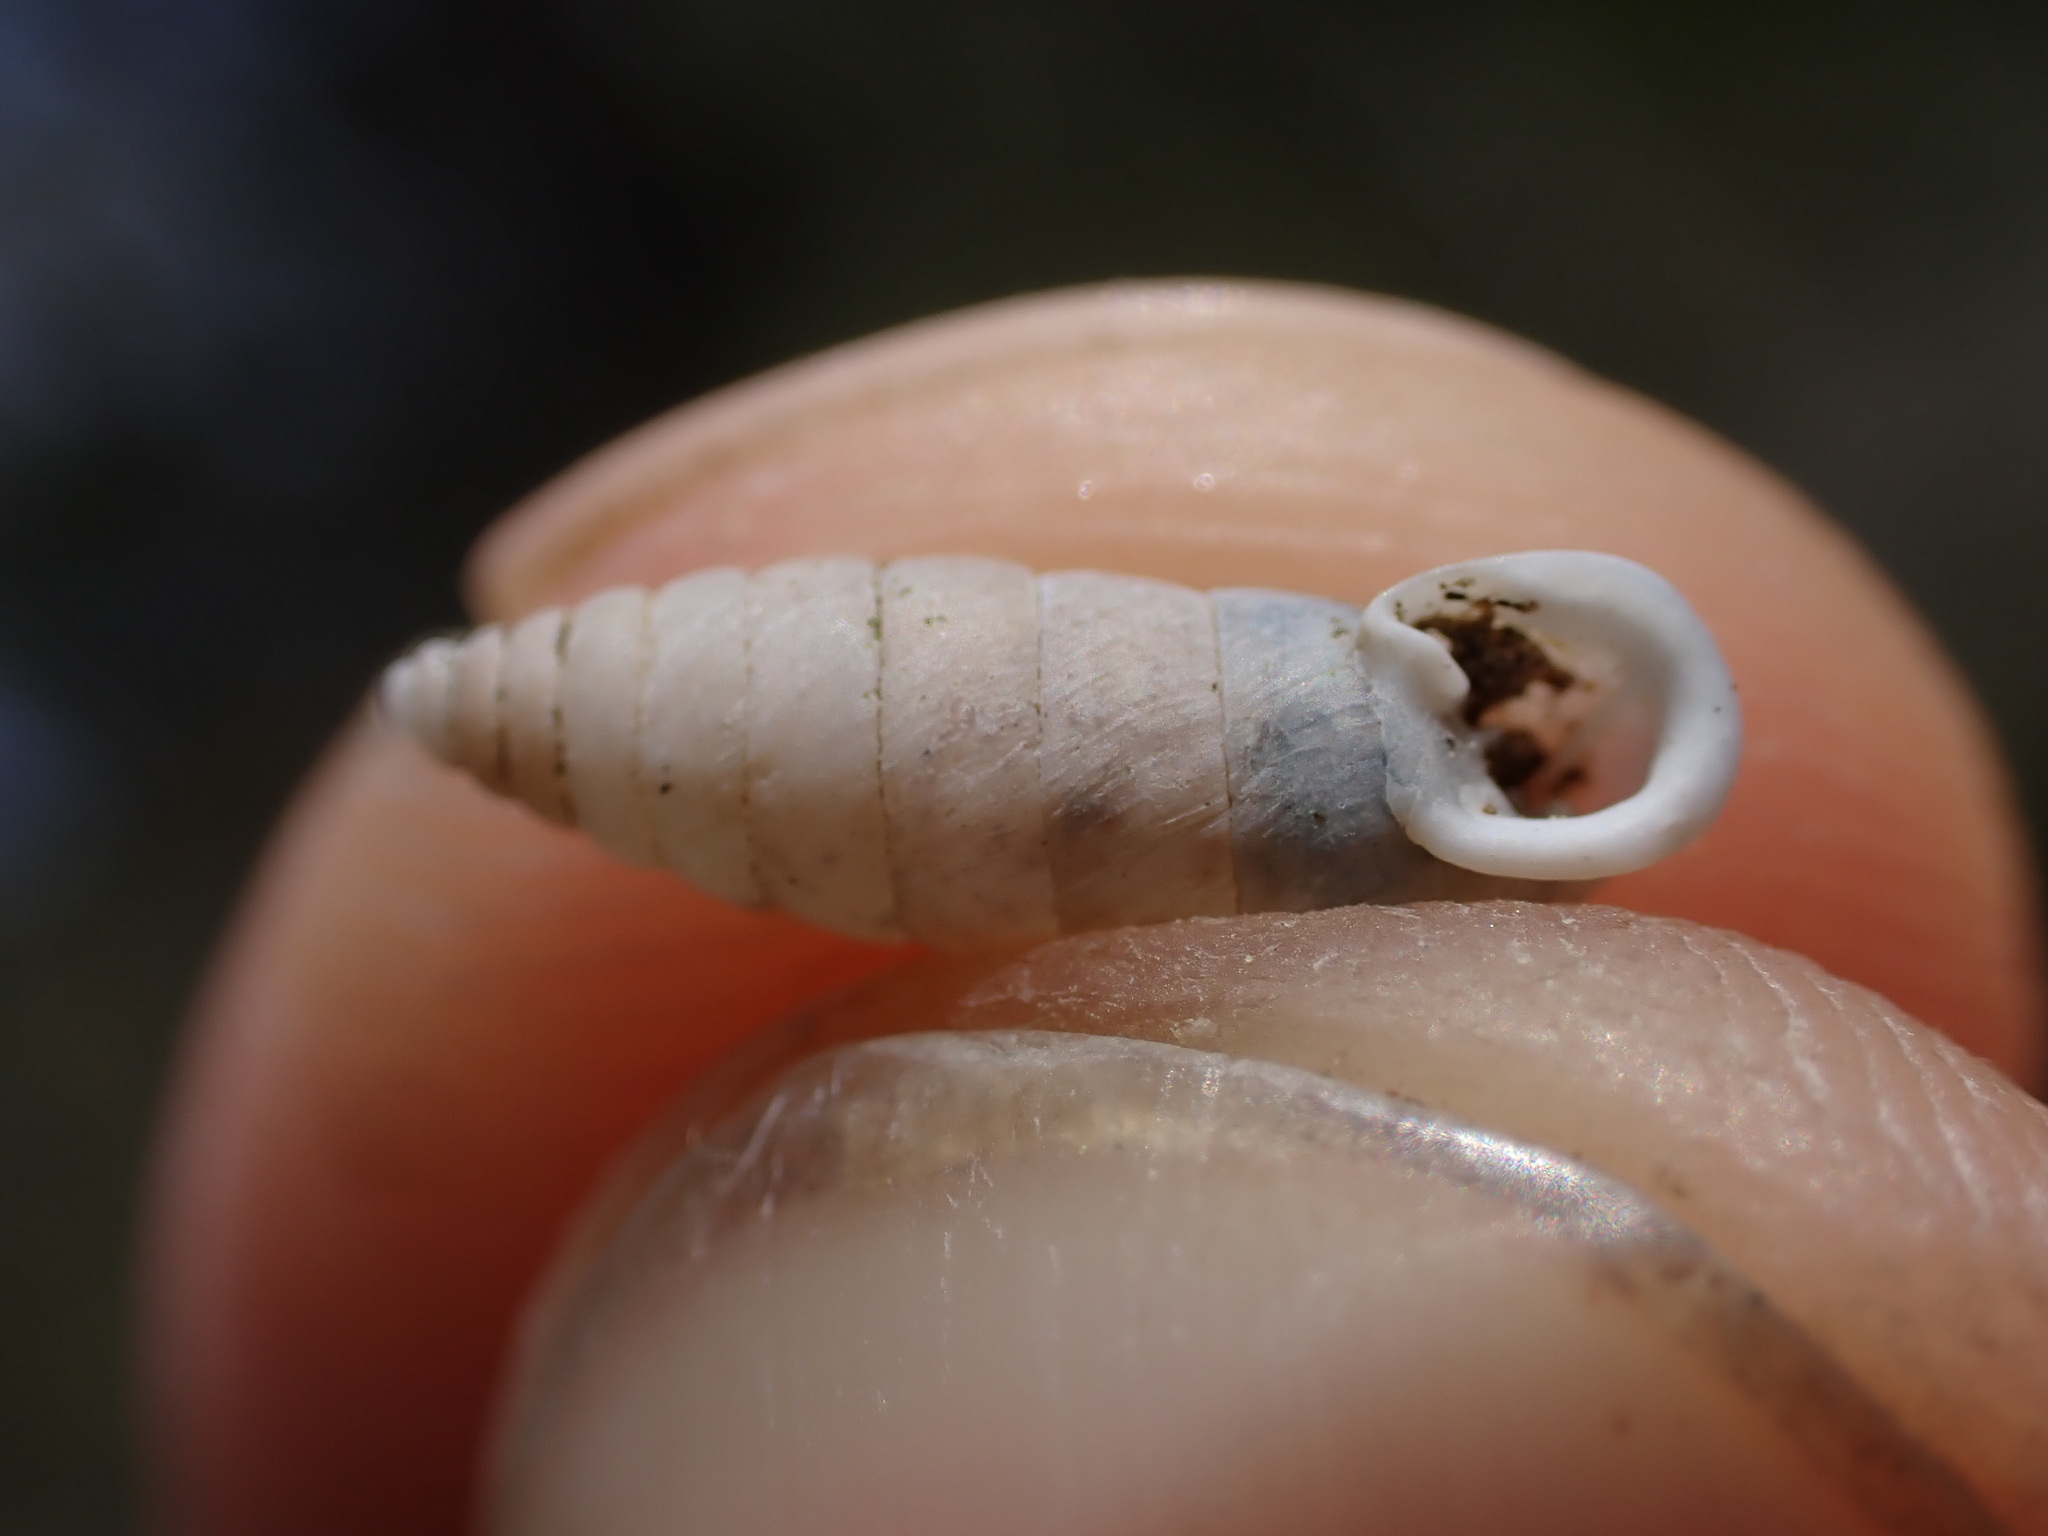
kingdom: Animalia
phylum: Mollusca
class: Gastropoda
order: Stylommatophora
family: Chondrinidae
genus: Granaria
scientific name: Granaria variabilis
